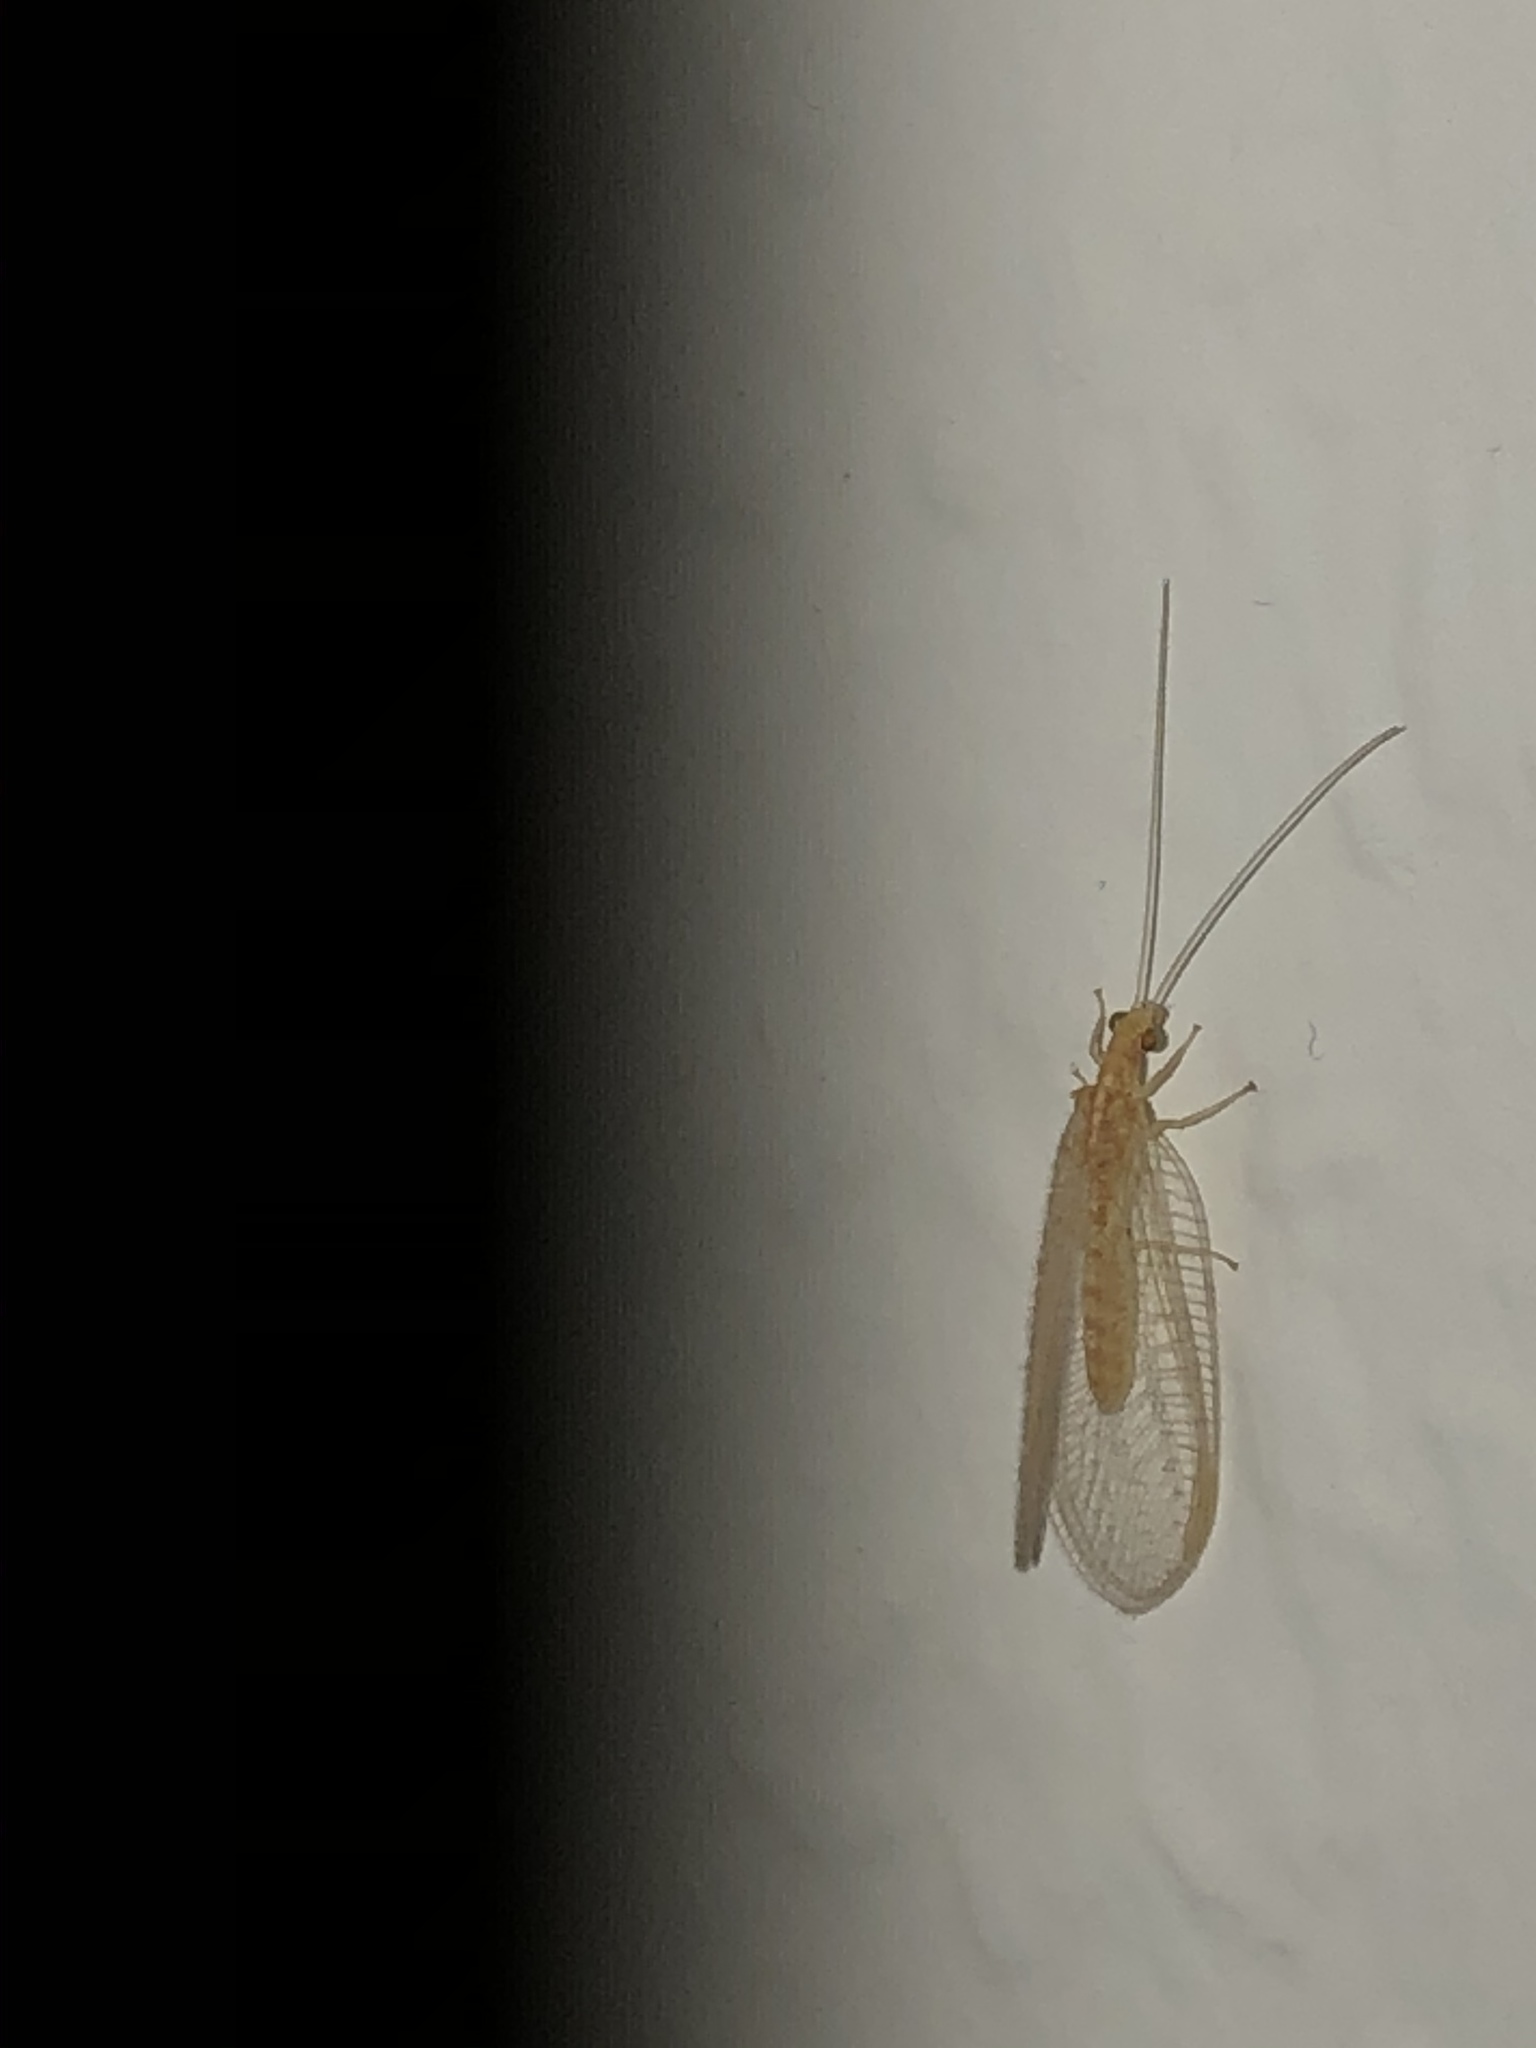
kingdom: Animalia
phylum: Arthropoda
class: Insecta
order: Neuroptera
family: Chrysopidae
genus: Chrysoperla
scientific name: Chrysoperla
